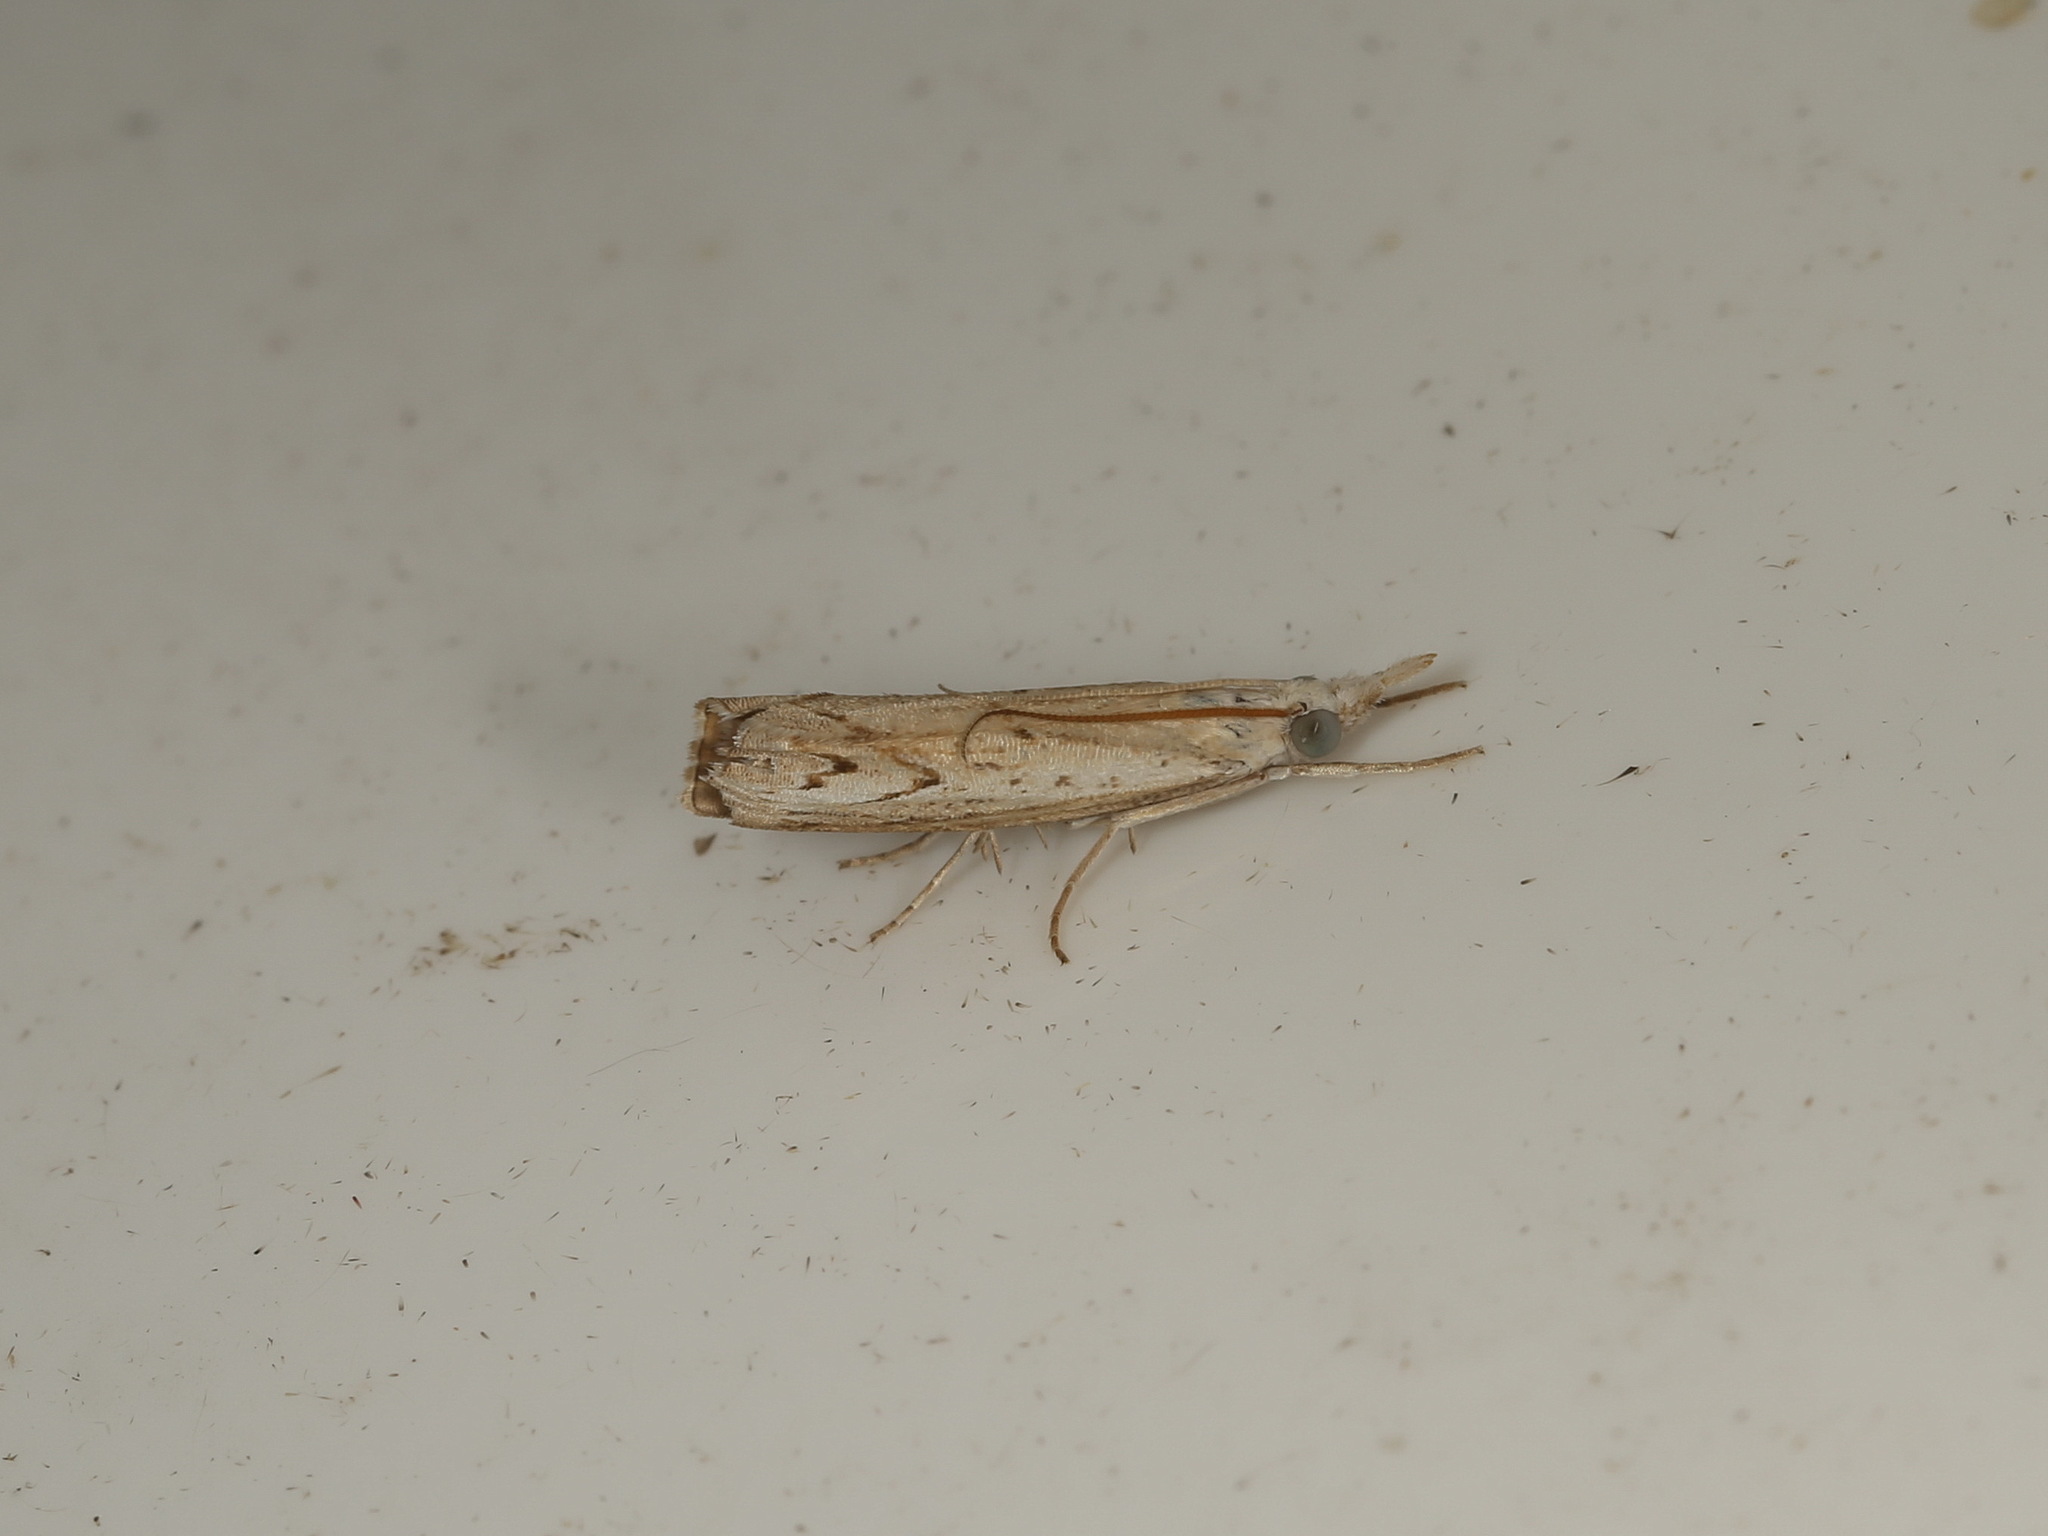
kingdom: Animalia
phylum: Arthropoda
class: Insecta
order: Lepidoptera
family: Crambidae
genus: Culladia
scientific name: Culladia cuneiferellus
